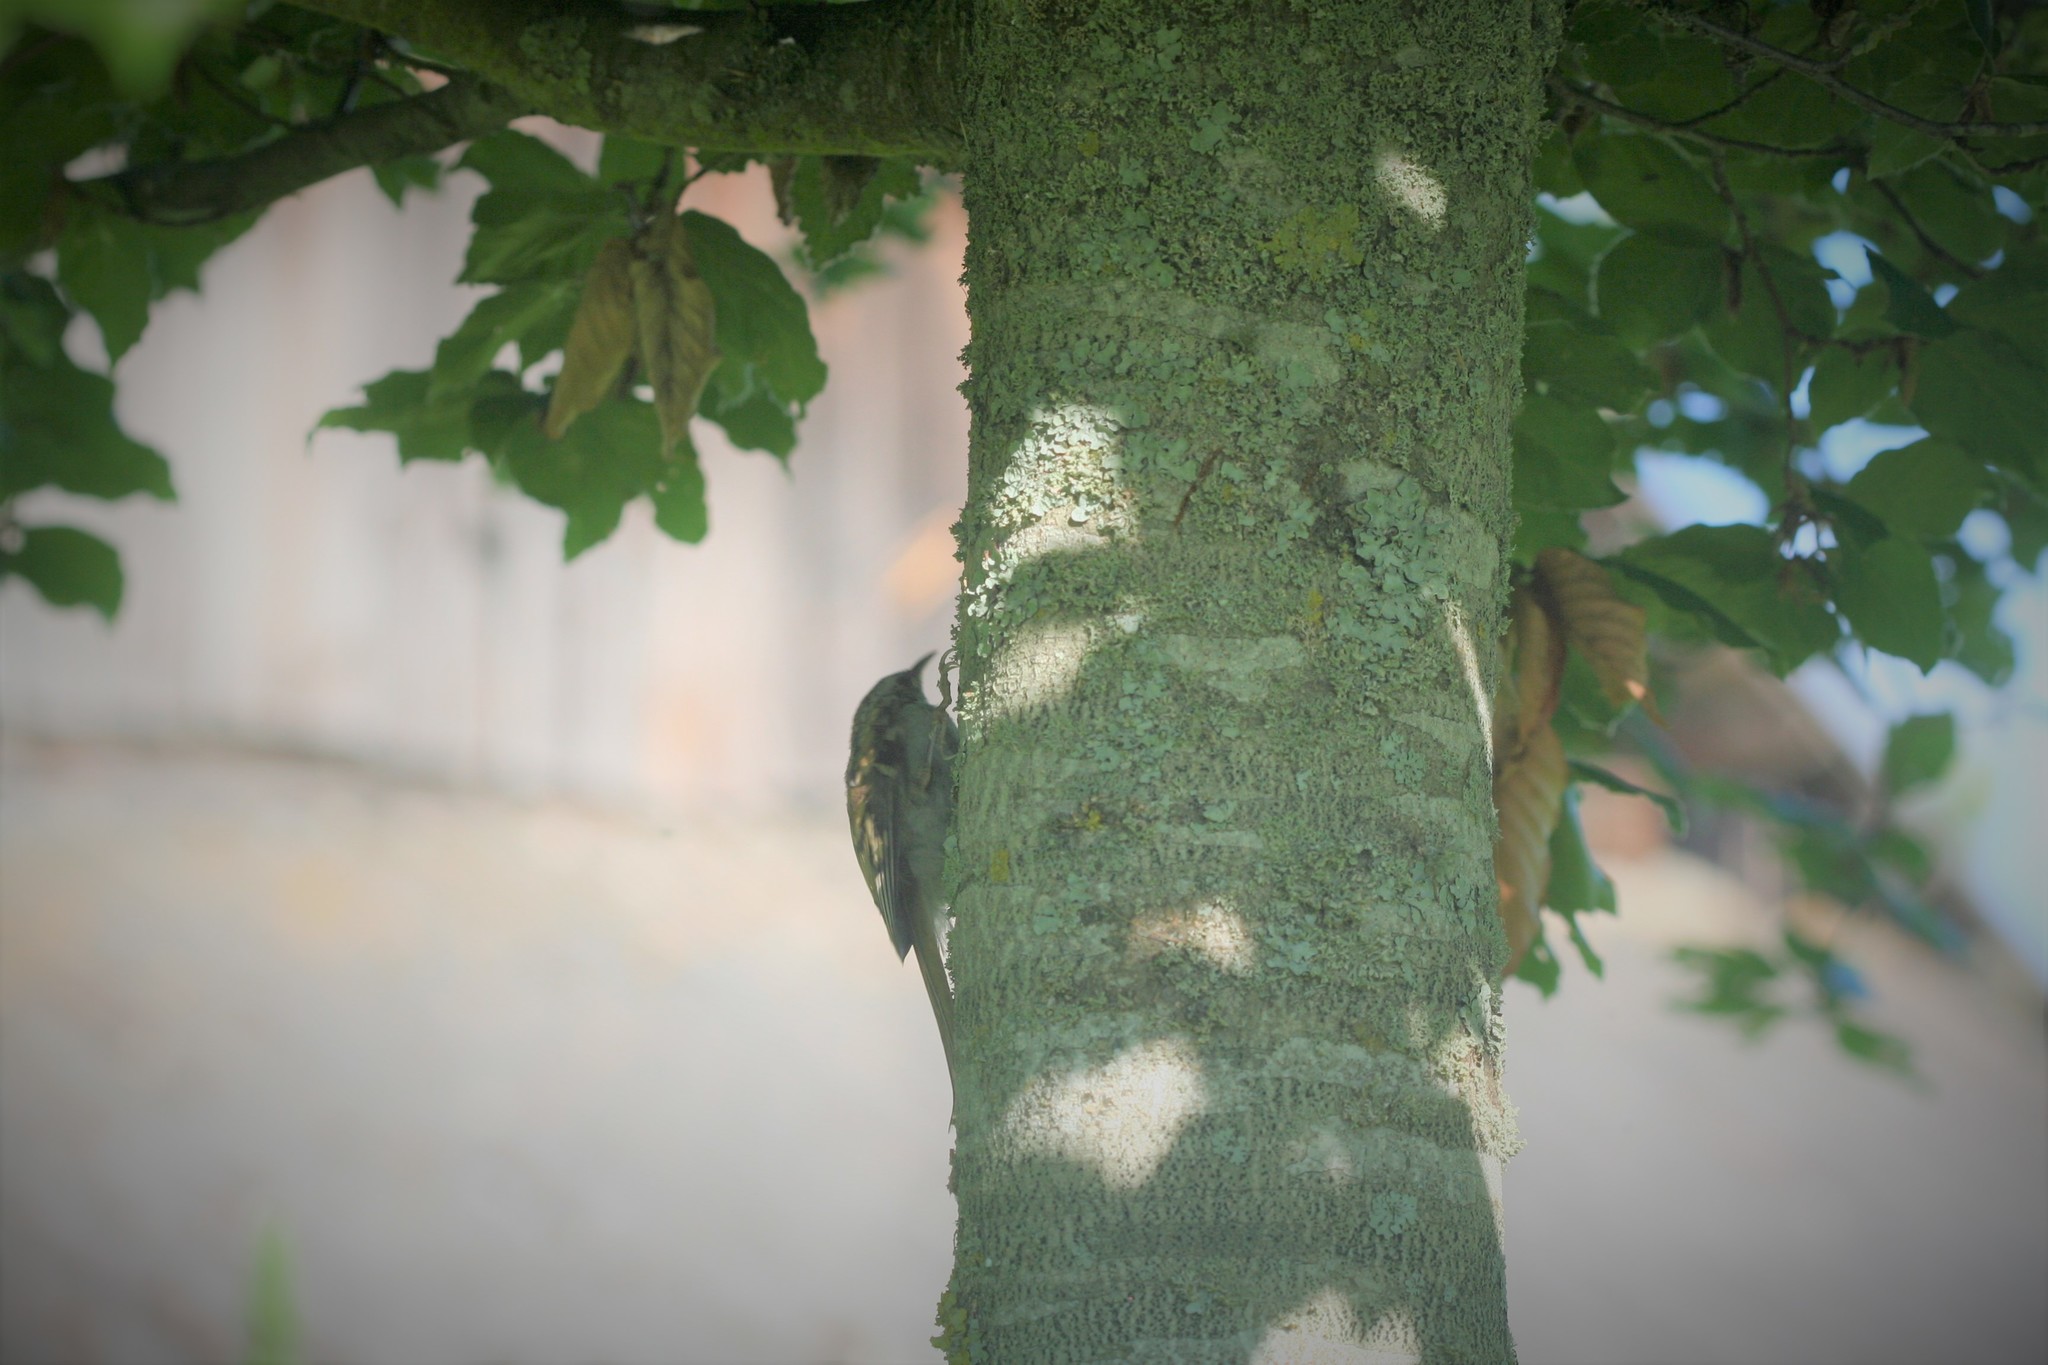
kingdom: Animalia
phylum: Chordata
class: Aves
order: Passeriformes
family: Certhiidae
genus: Certhia
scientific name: Certhia familiaris
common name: Eurasian treecreeper
